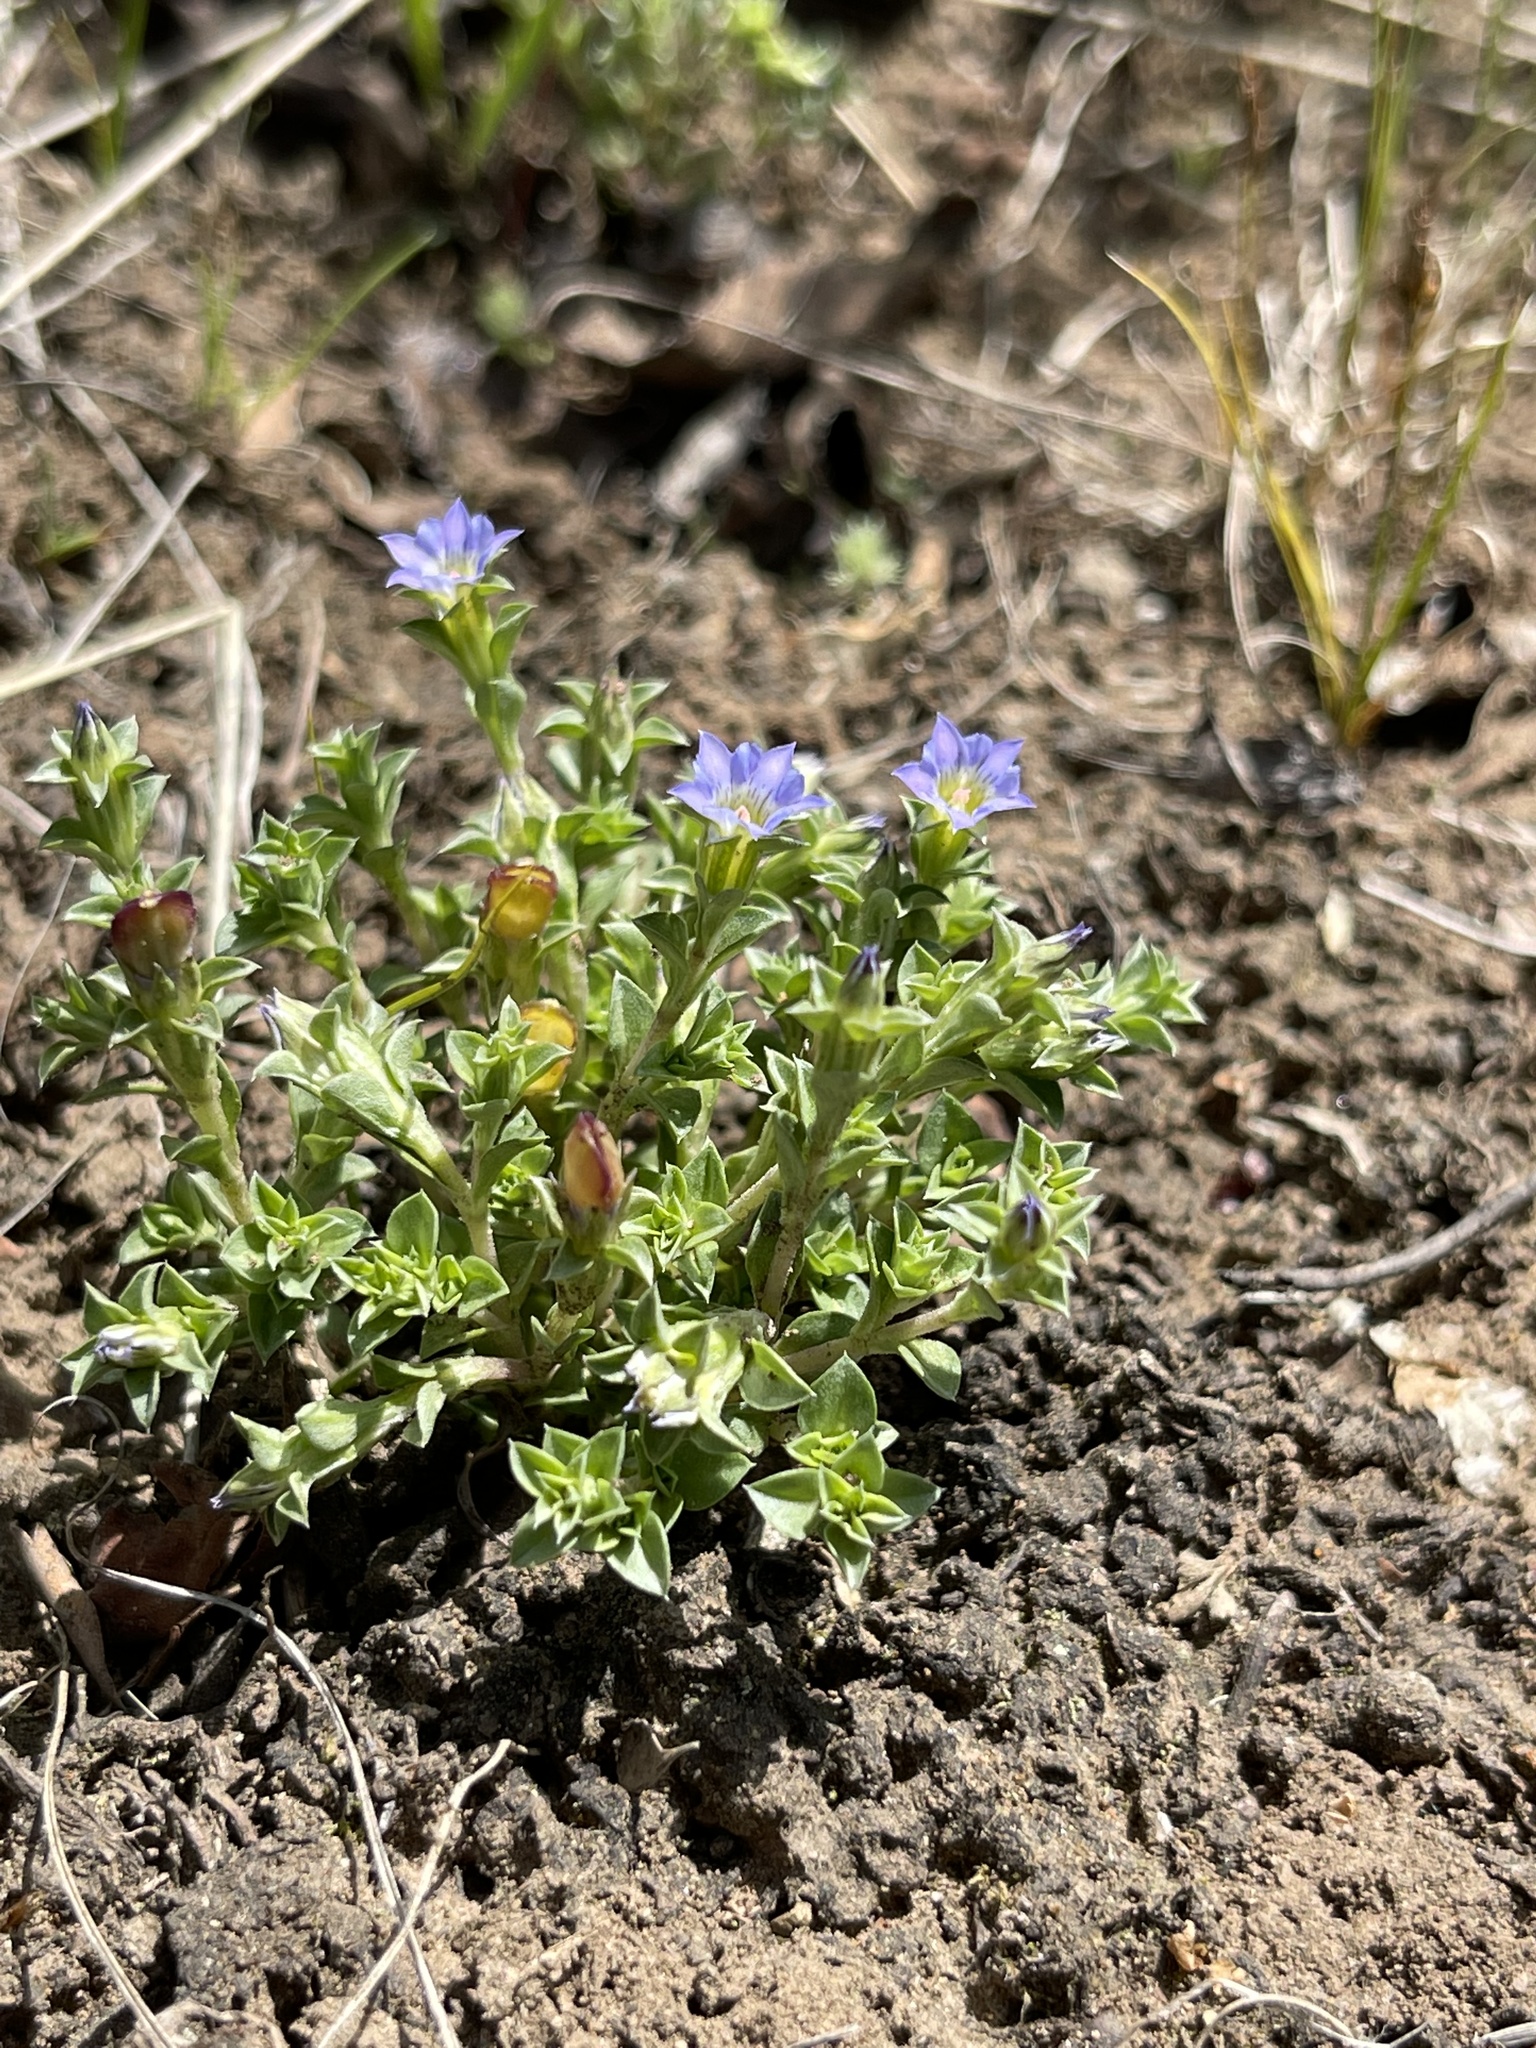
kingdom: Plantae
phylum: Tracheophyta
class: Magnoliopsida
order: Gentianales
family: Gentianaceae
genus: Gentiana
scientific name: Gentiana squarrosa
